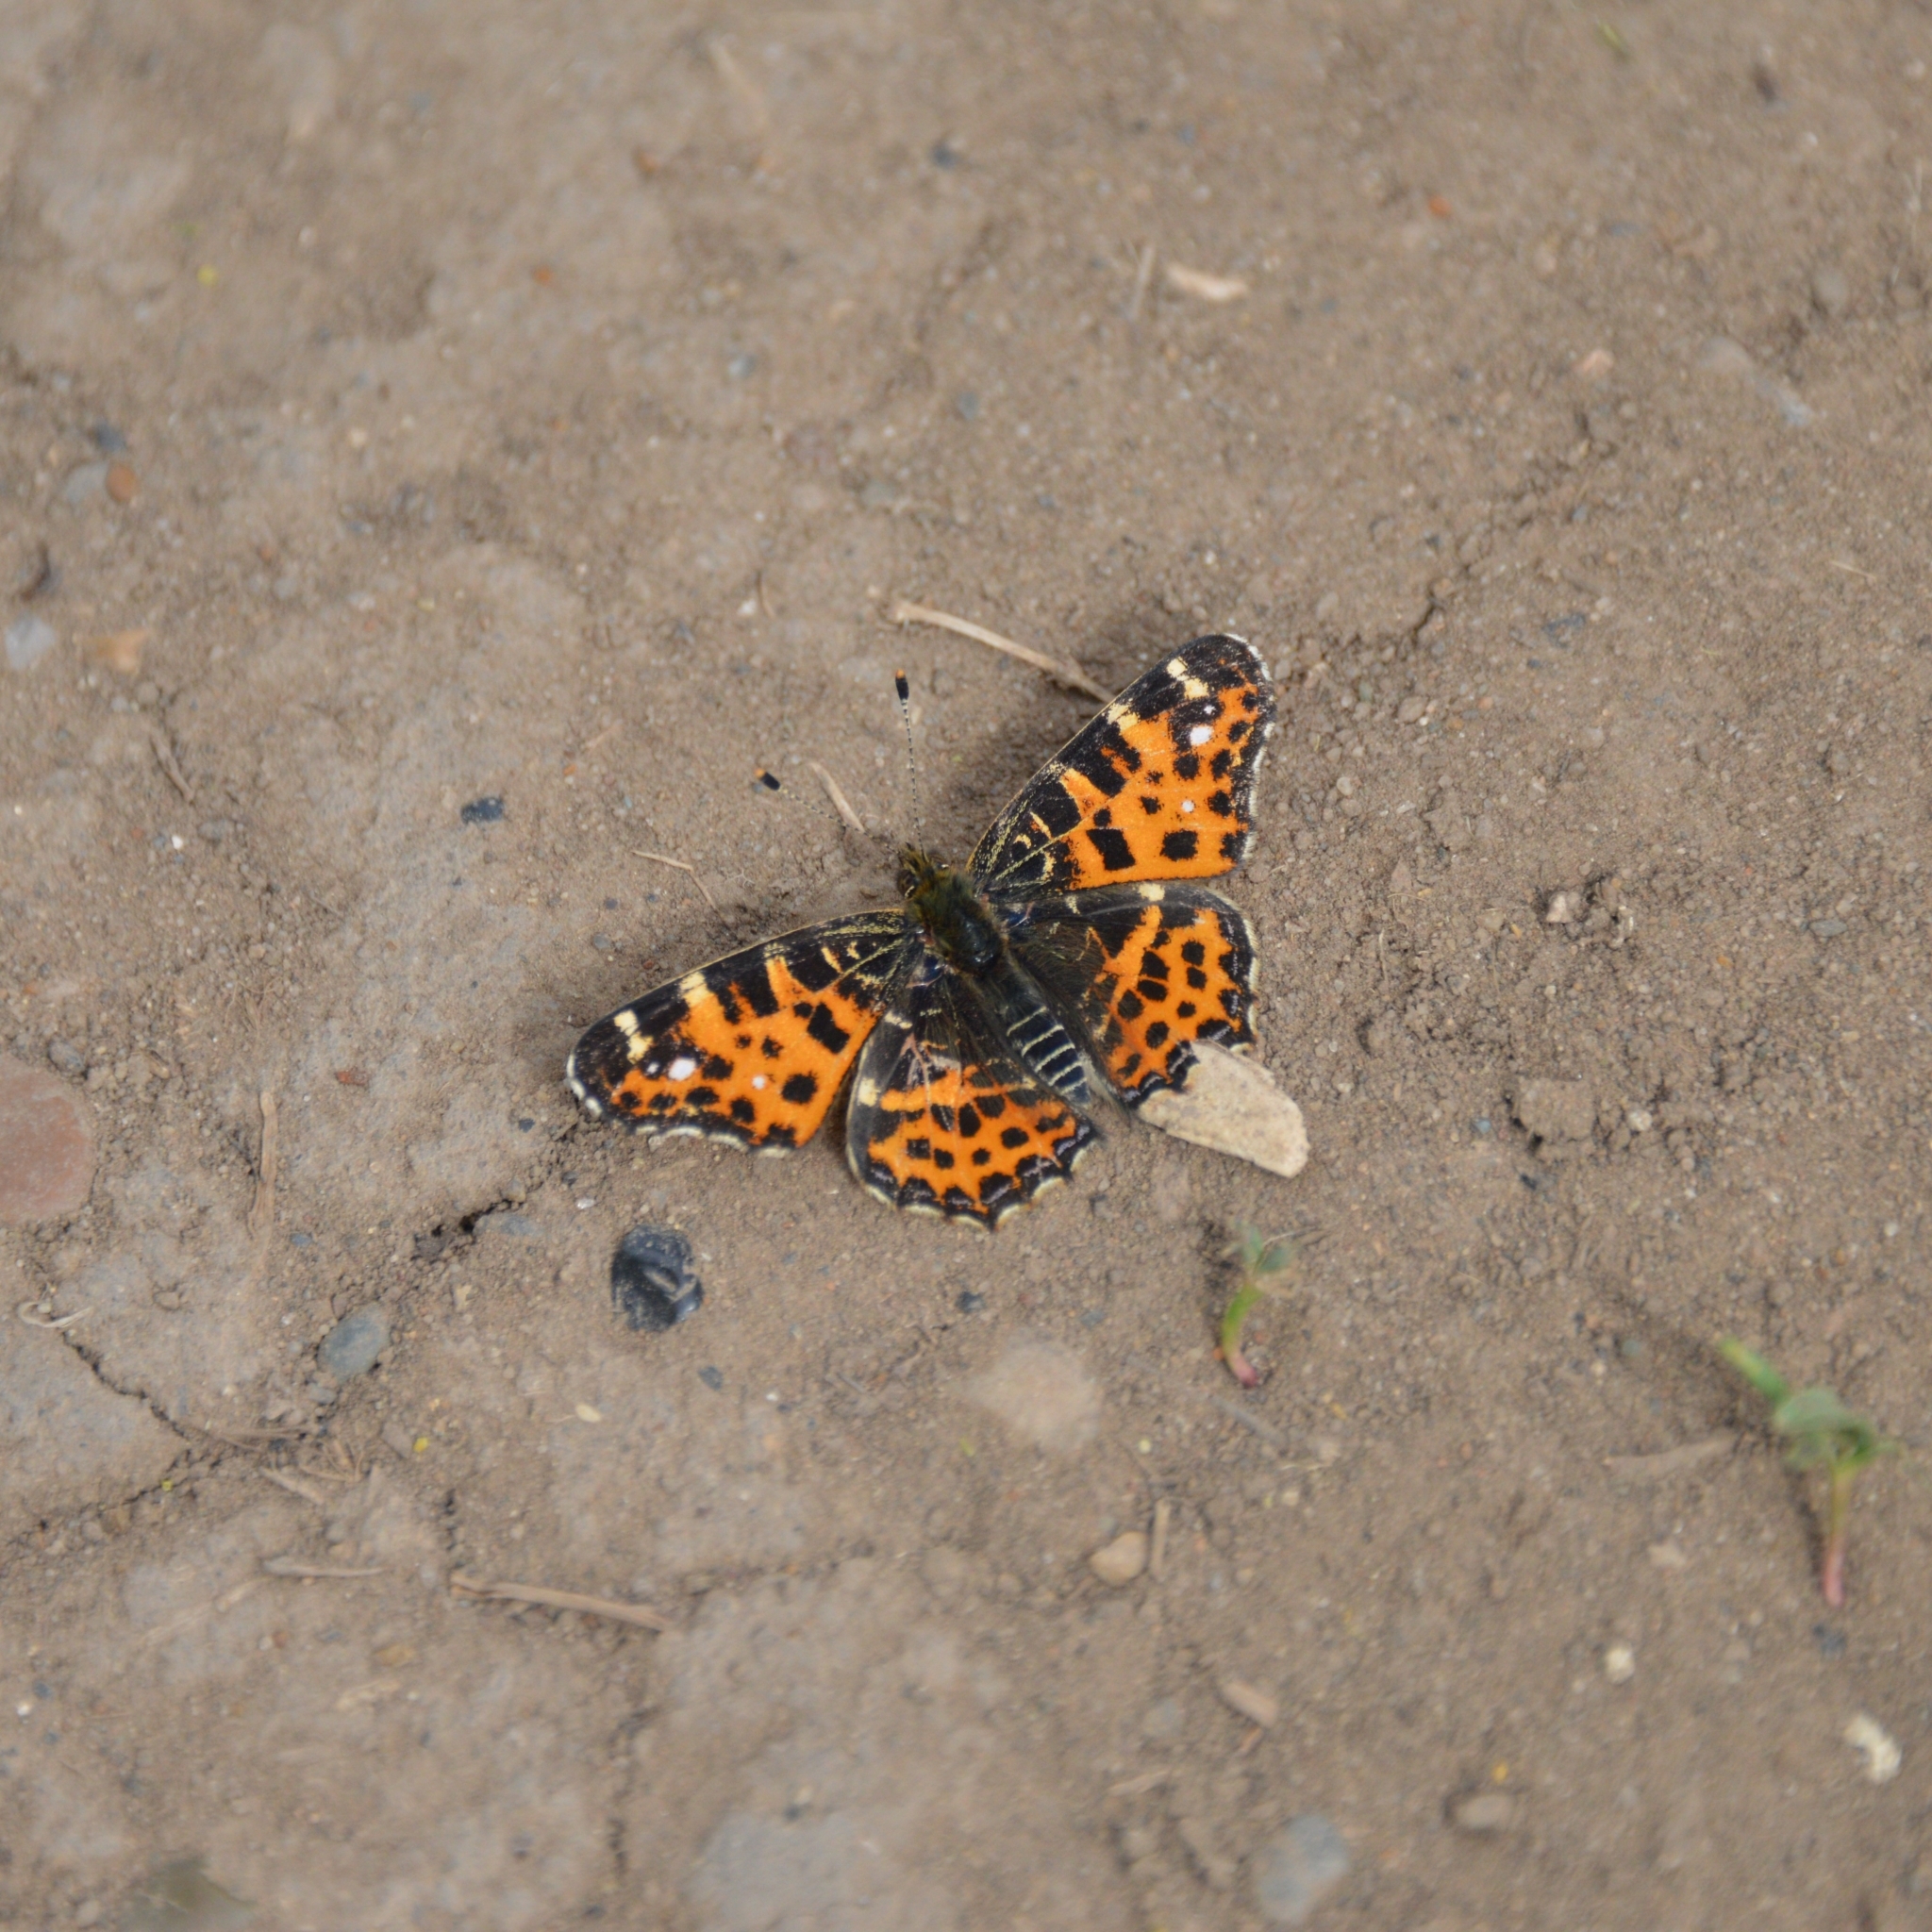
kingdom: Animalia
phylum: Arthropoda
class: Insecta
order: Lepidoptera
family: Nymphalidae
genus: Araschnia
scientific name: Araschnia levana
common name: Map butterfly
